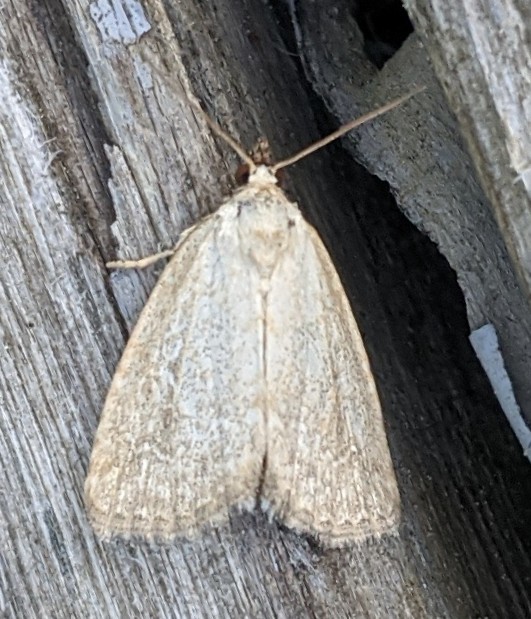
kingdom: Animalia
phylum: Arthropoda
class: Insecta
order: Lepidoptera
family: Noctuidae
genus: Protodeltote
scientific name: Protodeltote albidula
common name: Pale glyph
